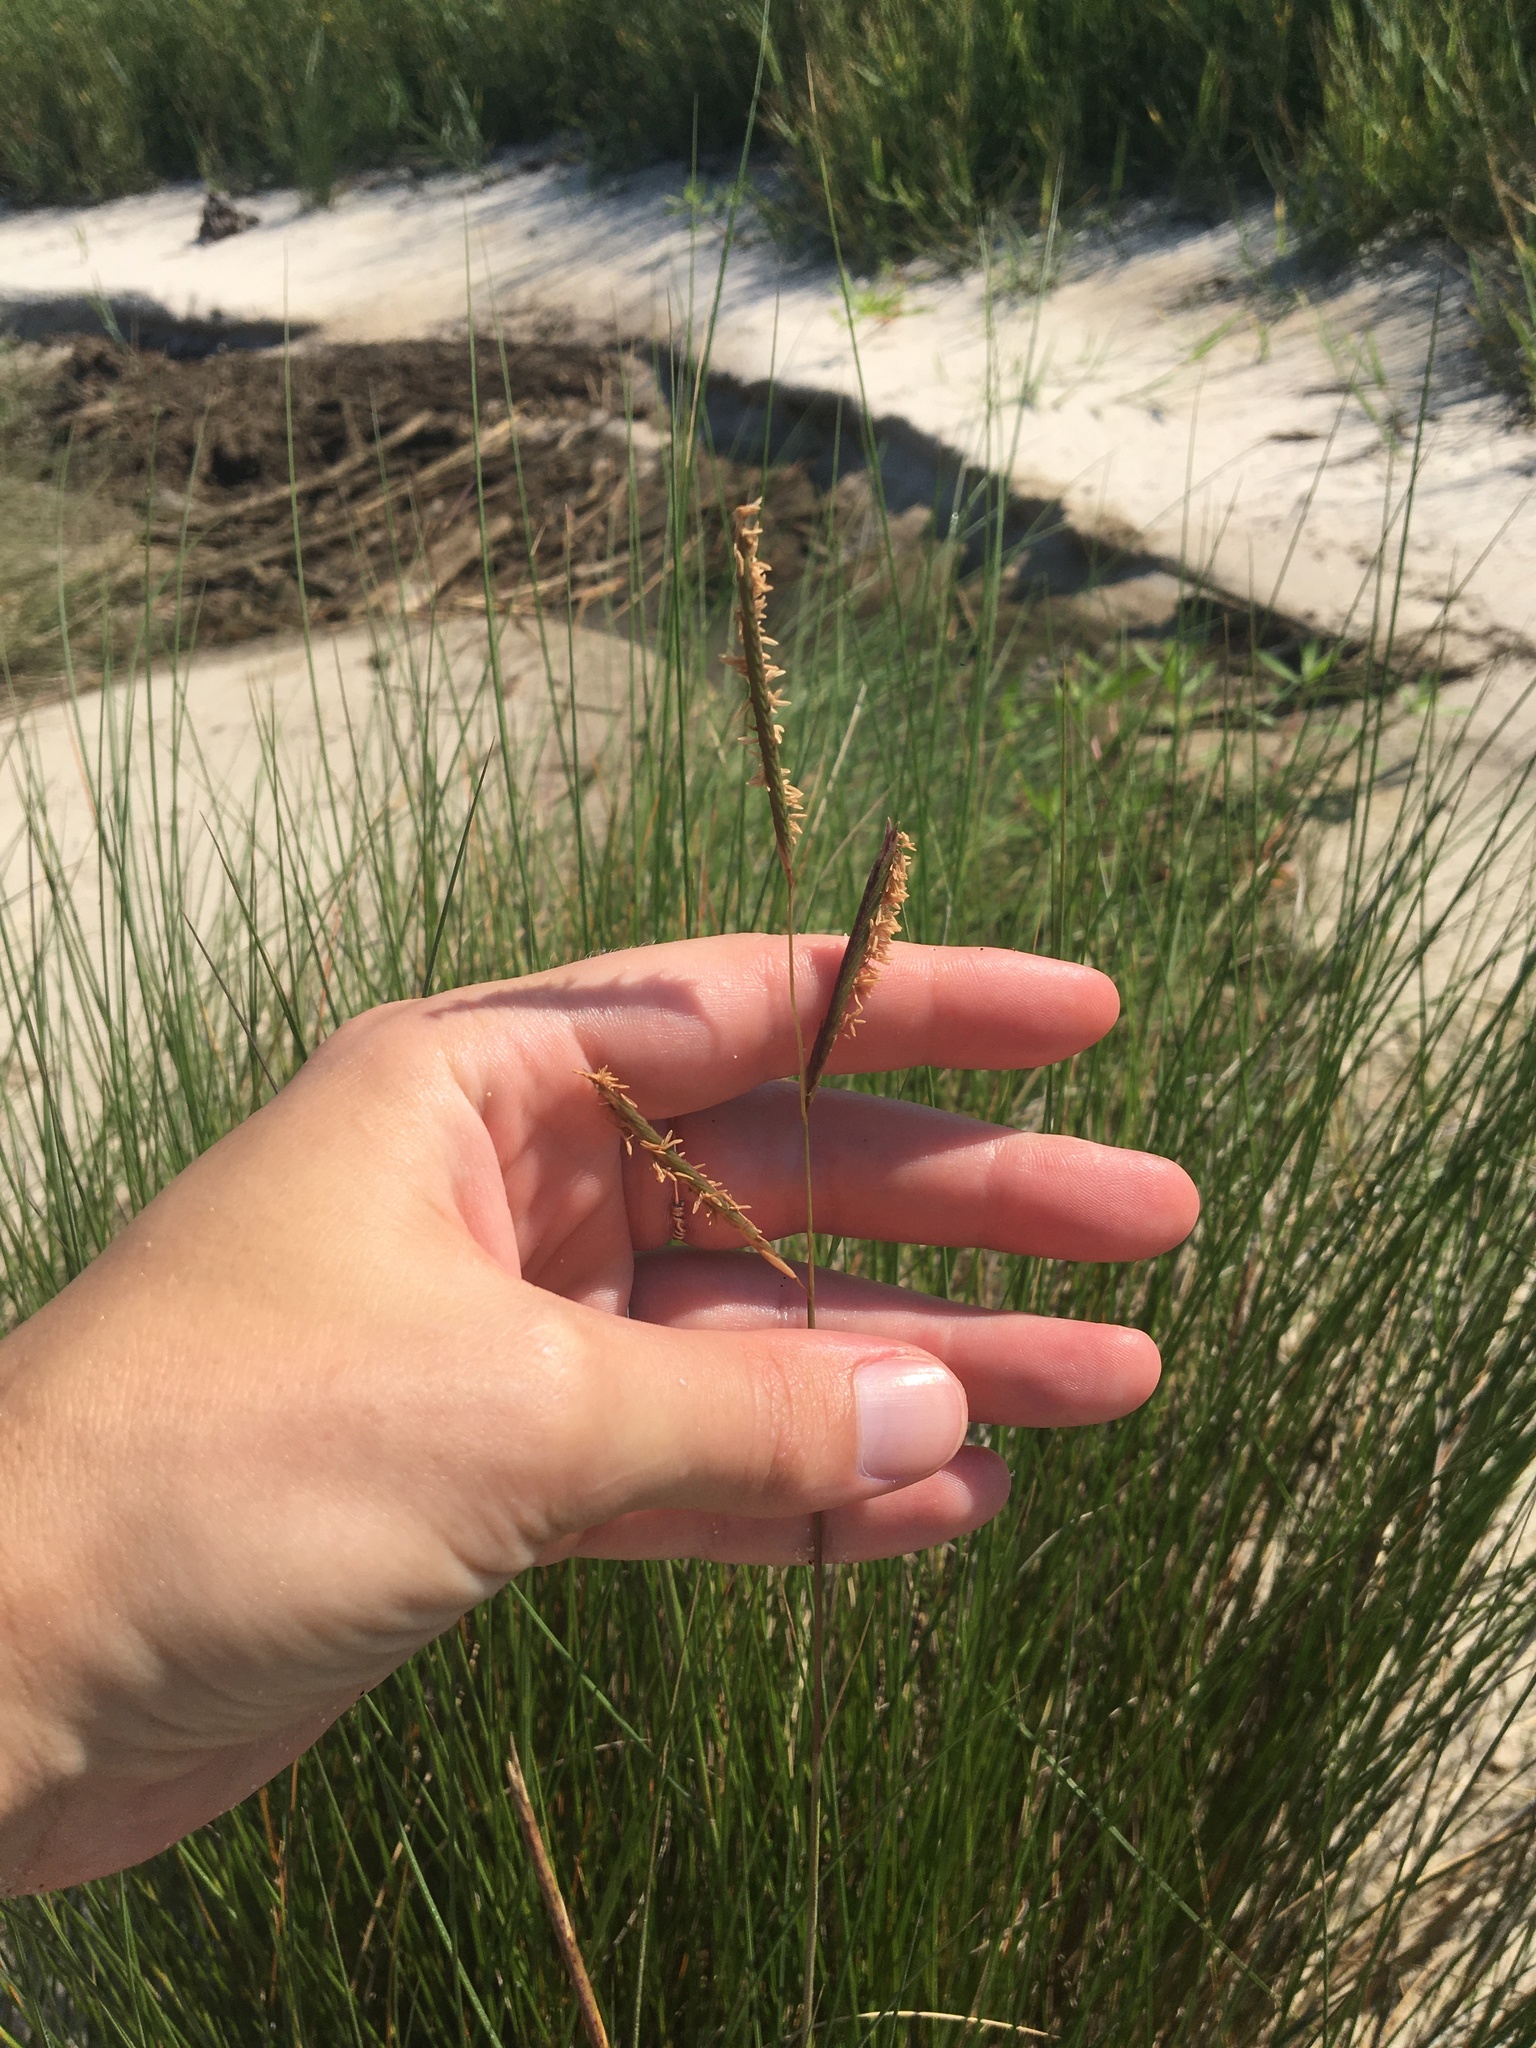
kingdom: Plantae
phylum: Tracheophyta
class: Liliopsida
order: Poales
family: Poaceae
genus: Sporobolus
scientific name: Sporobolus pumilus
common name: Highwater grass
